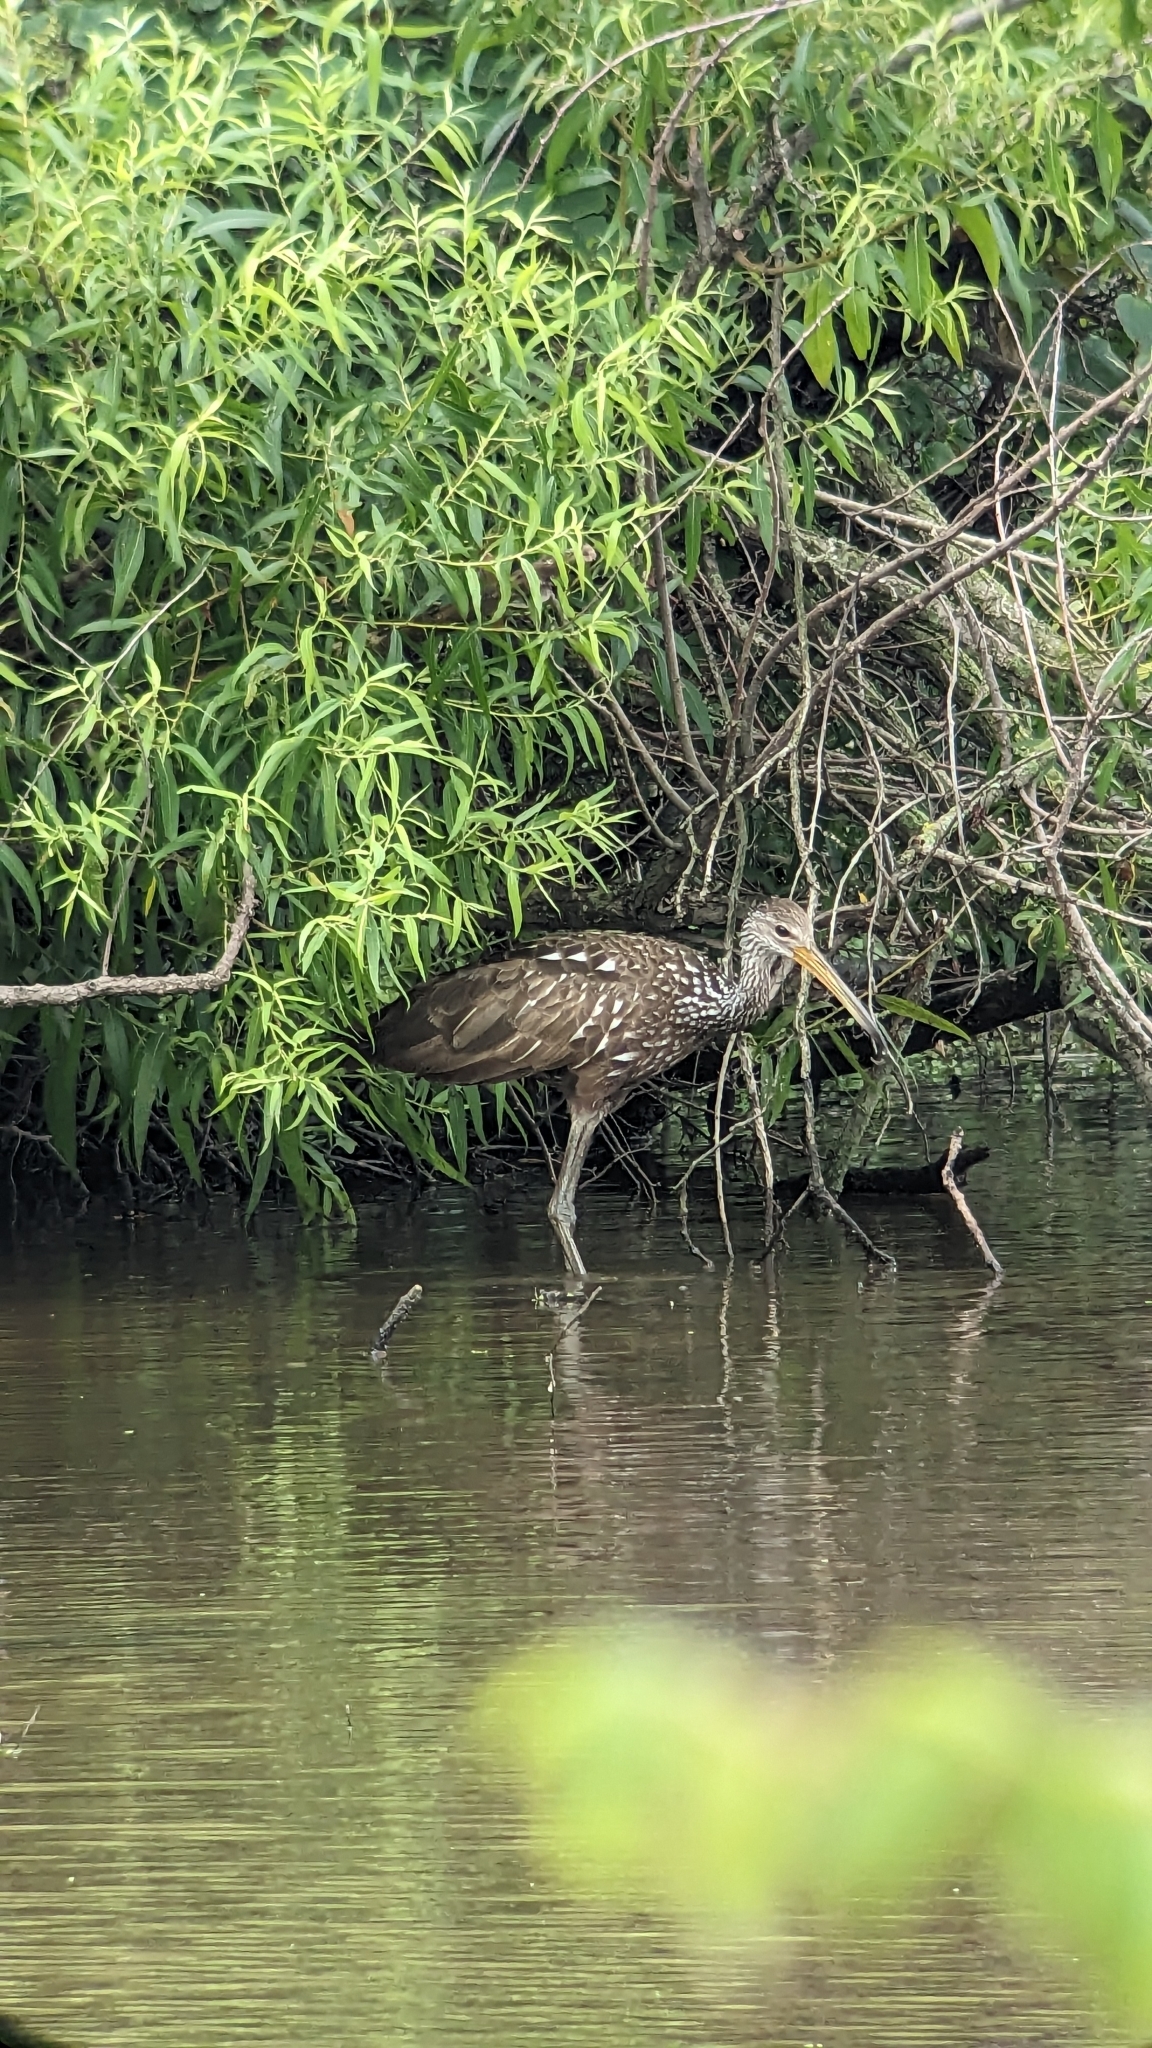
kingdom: Animalia
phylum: Chordata
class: Aves
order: Gruiformes
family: Aramidae
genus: Aramus
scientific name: Aramus guarauna
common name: Limpkin
